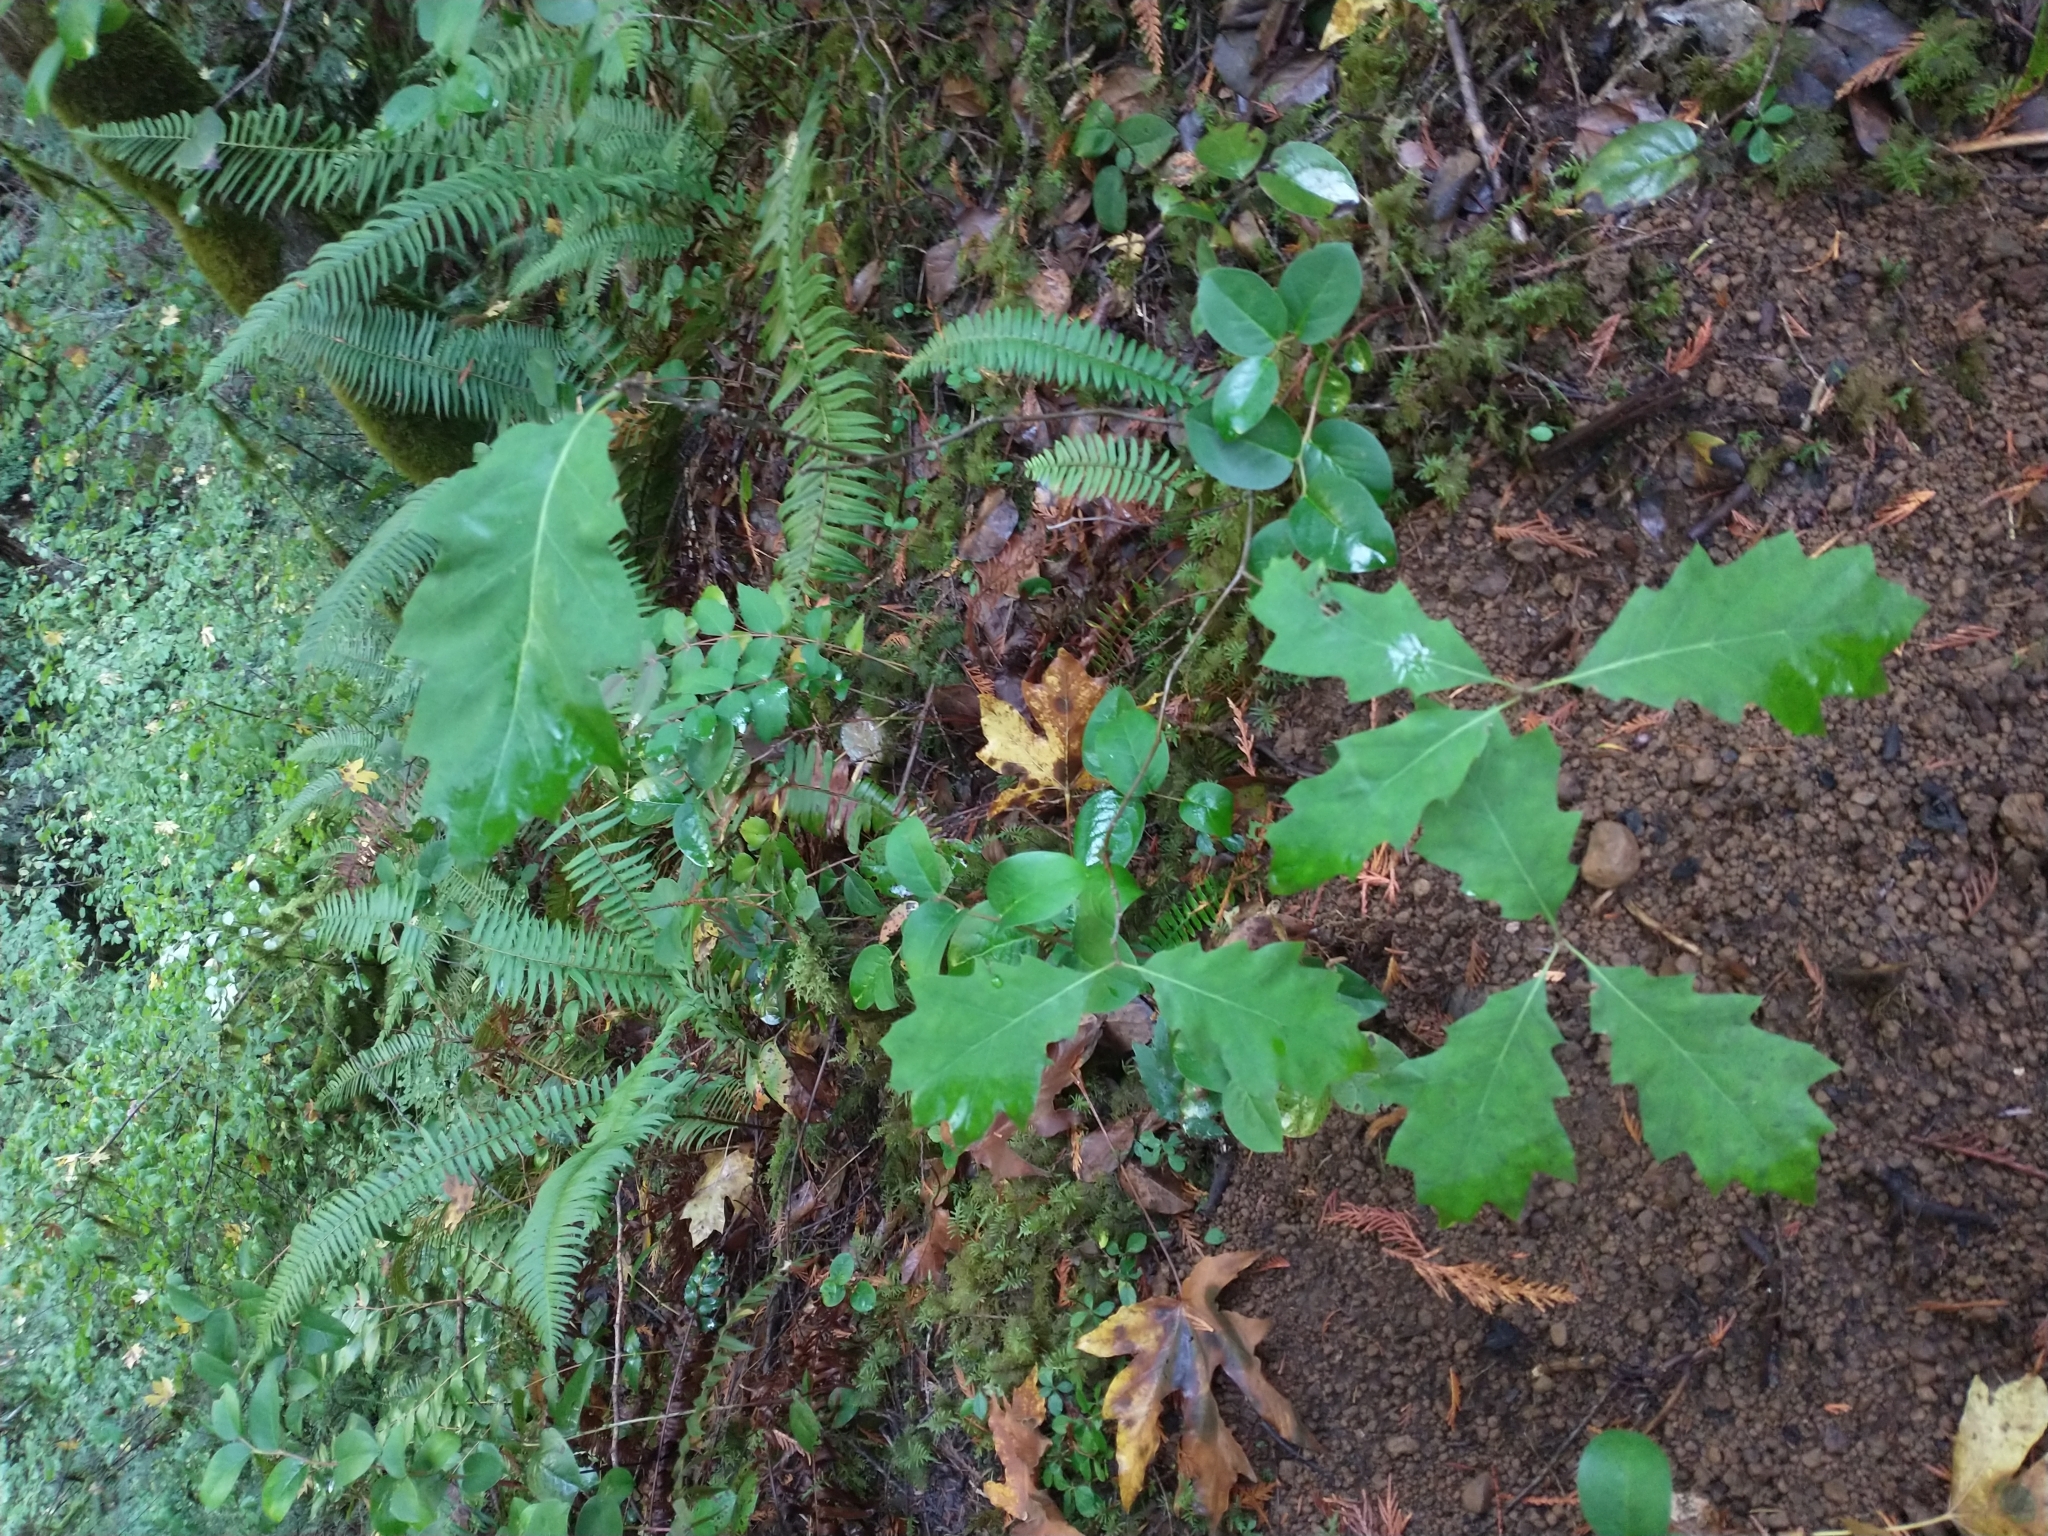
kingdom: Plantae
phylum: Tracheophyta
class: Magnoliopsida
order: Fagales
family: Fagaceae
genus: Quercus
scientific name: Quercus rubra
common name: Red oak
